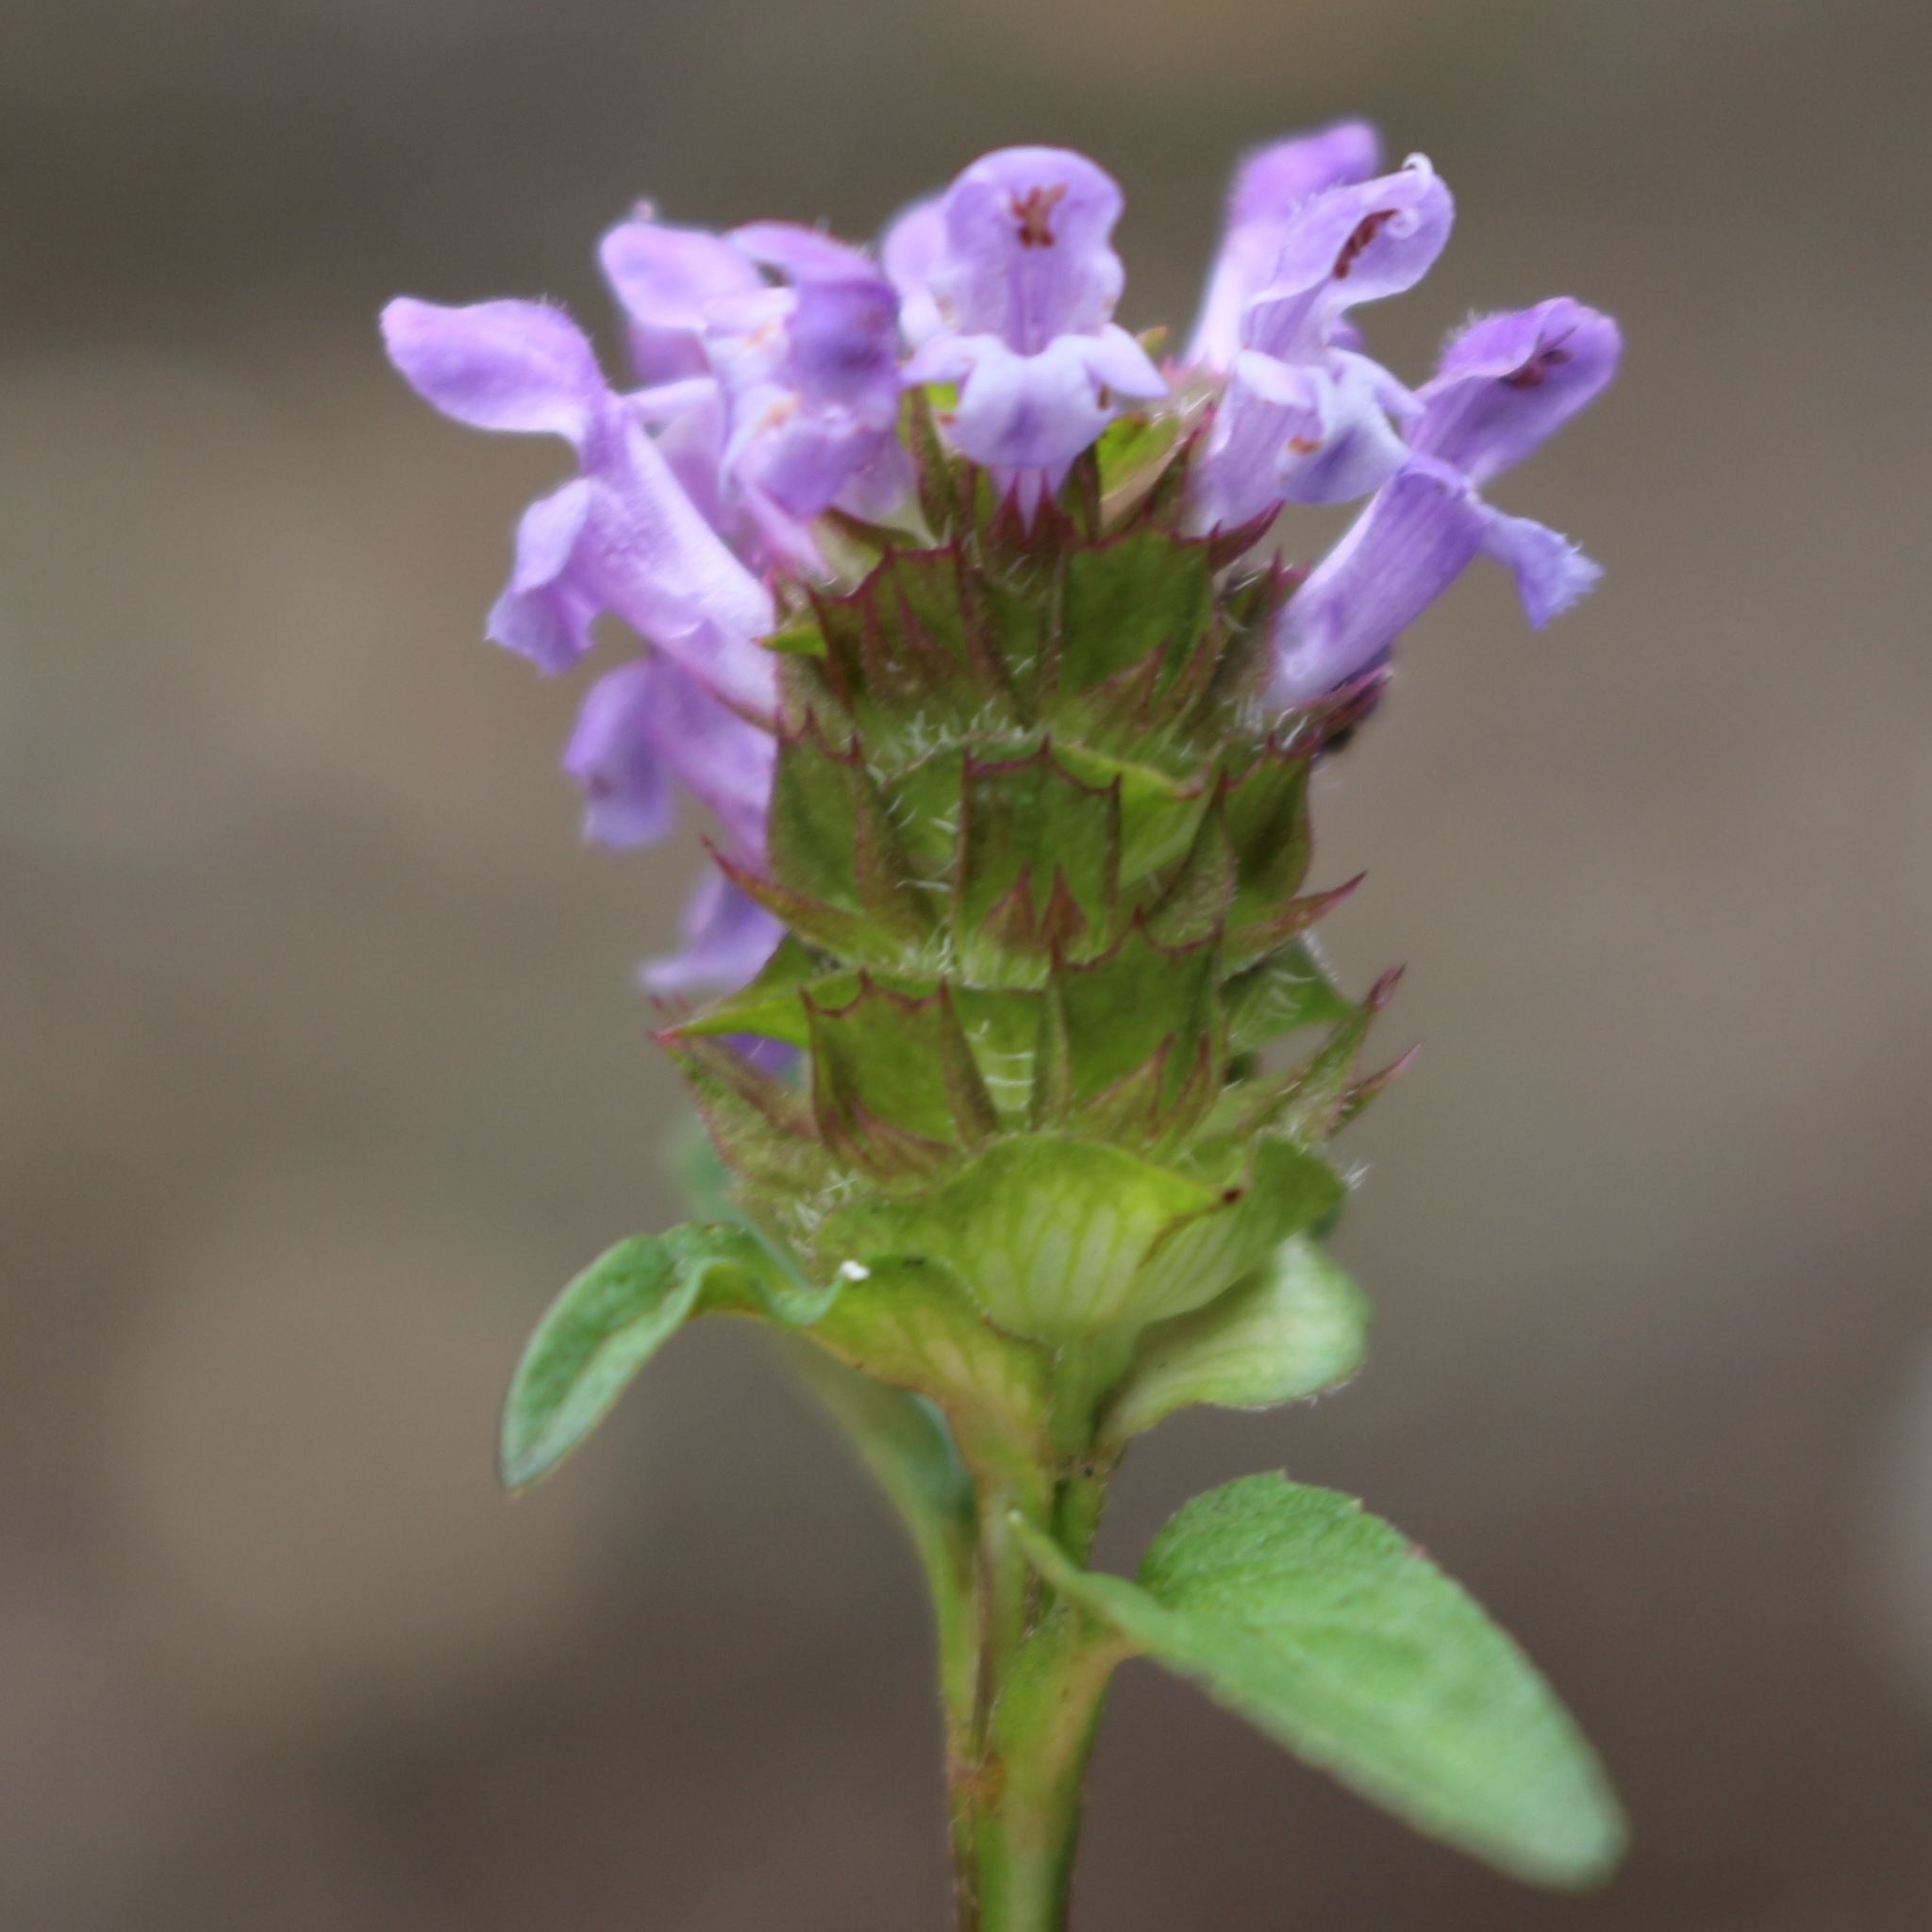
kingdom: Plantae
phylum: Tracheophyta
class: Magnoliopsida
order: Lamiales
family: Lamiaceae
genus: Prunella
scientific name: Prunella vulgaris
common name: Heal-all
